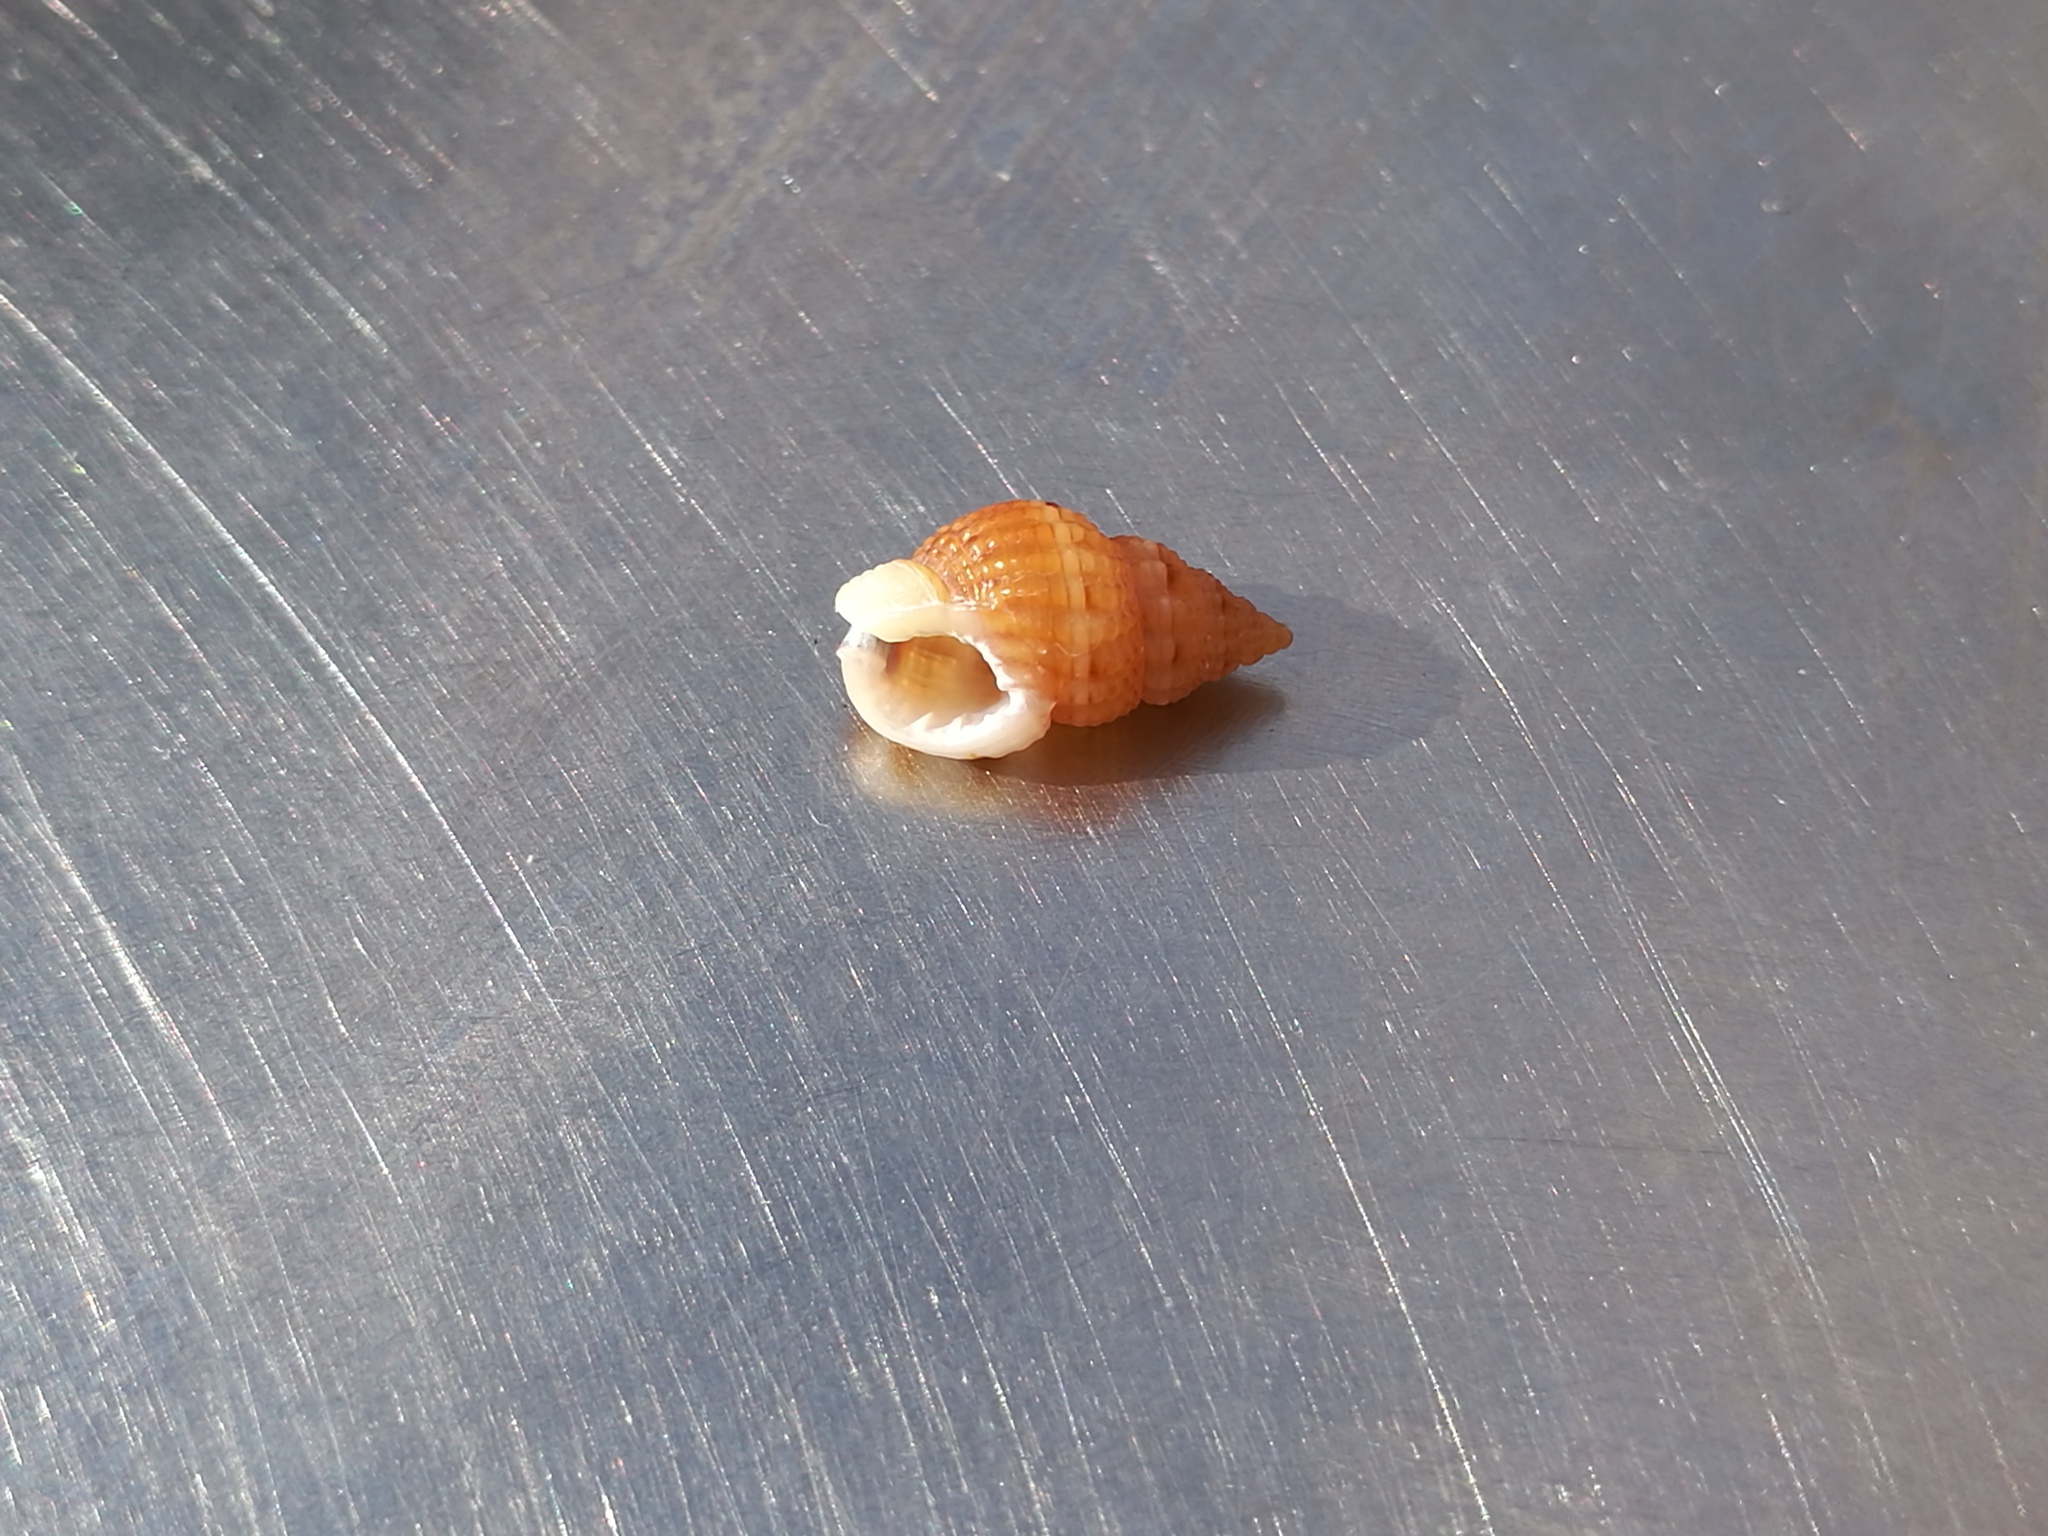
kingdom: Animalia
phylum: Mollusca
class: Gastropoda
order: Neogastropoda
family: Nassariidae
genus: Tritia
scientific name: Tritia incrassata
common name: Thick-lipped dog whelk
